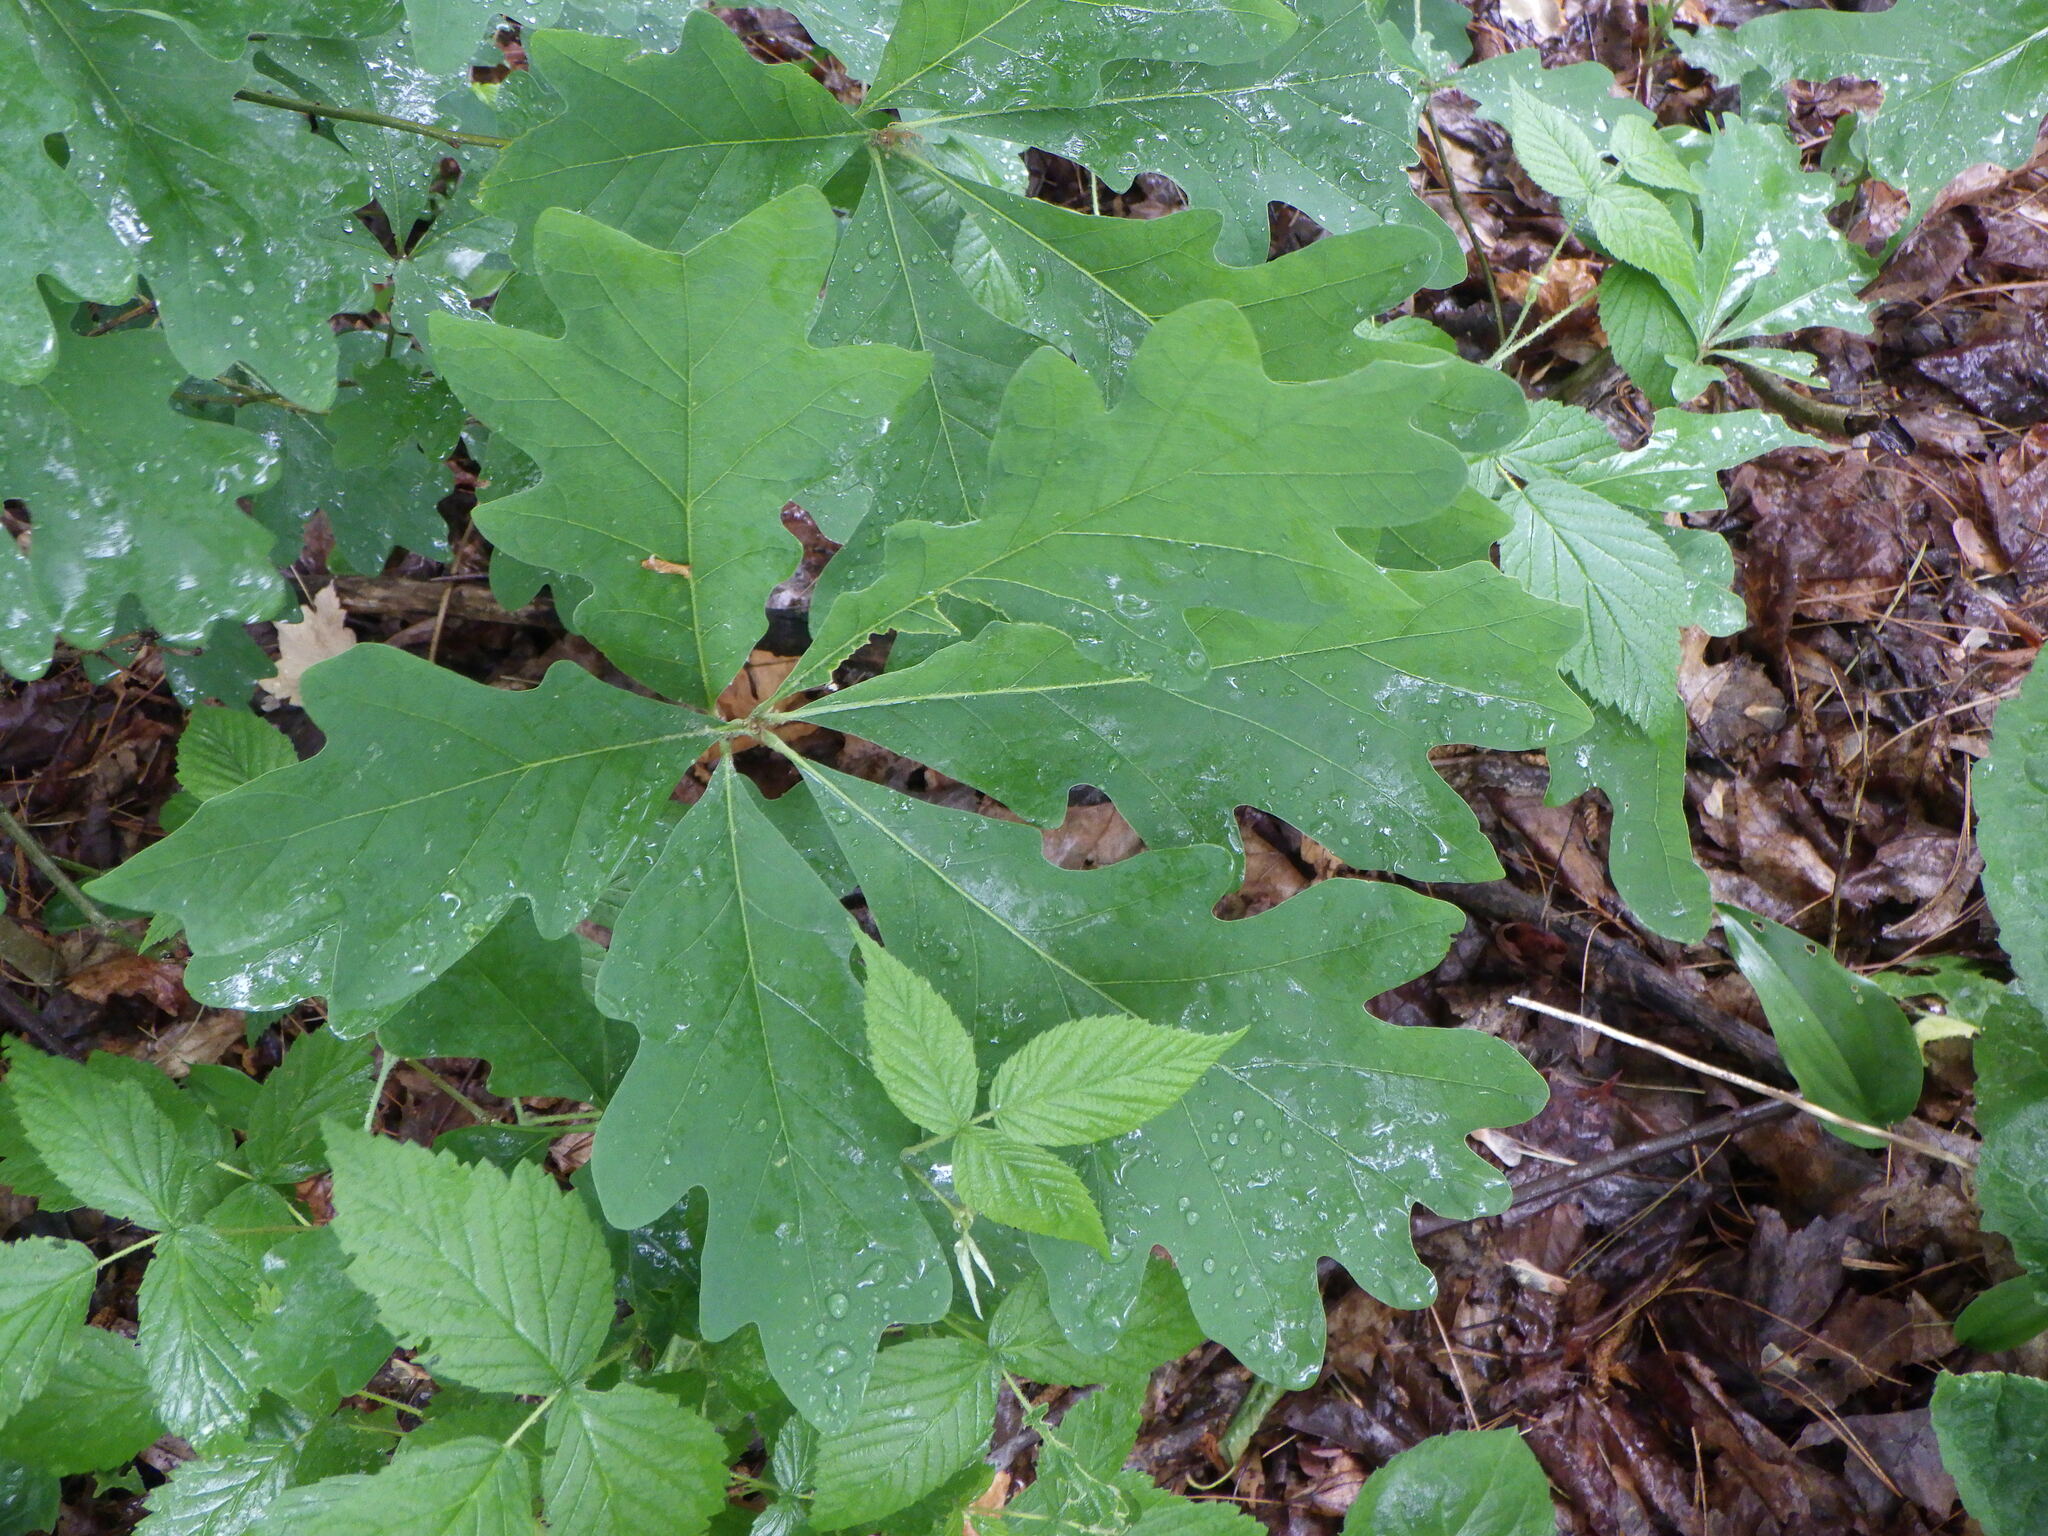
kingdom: Plantae
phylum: Tracheophyta
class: Magnoliopsida
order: Fagales
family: Fagaceae
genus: Quercus
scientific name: Quercus alba
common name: White oak
